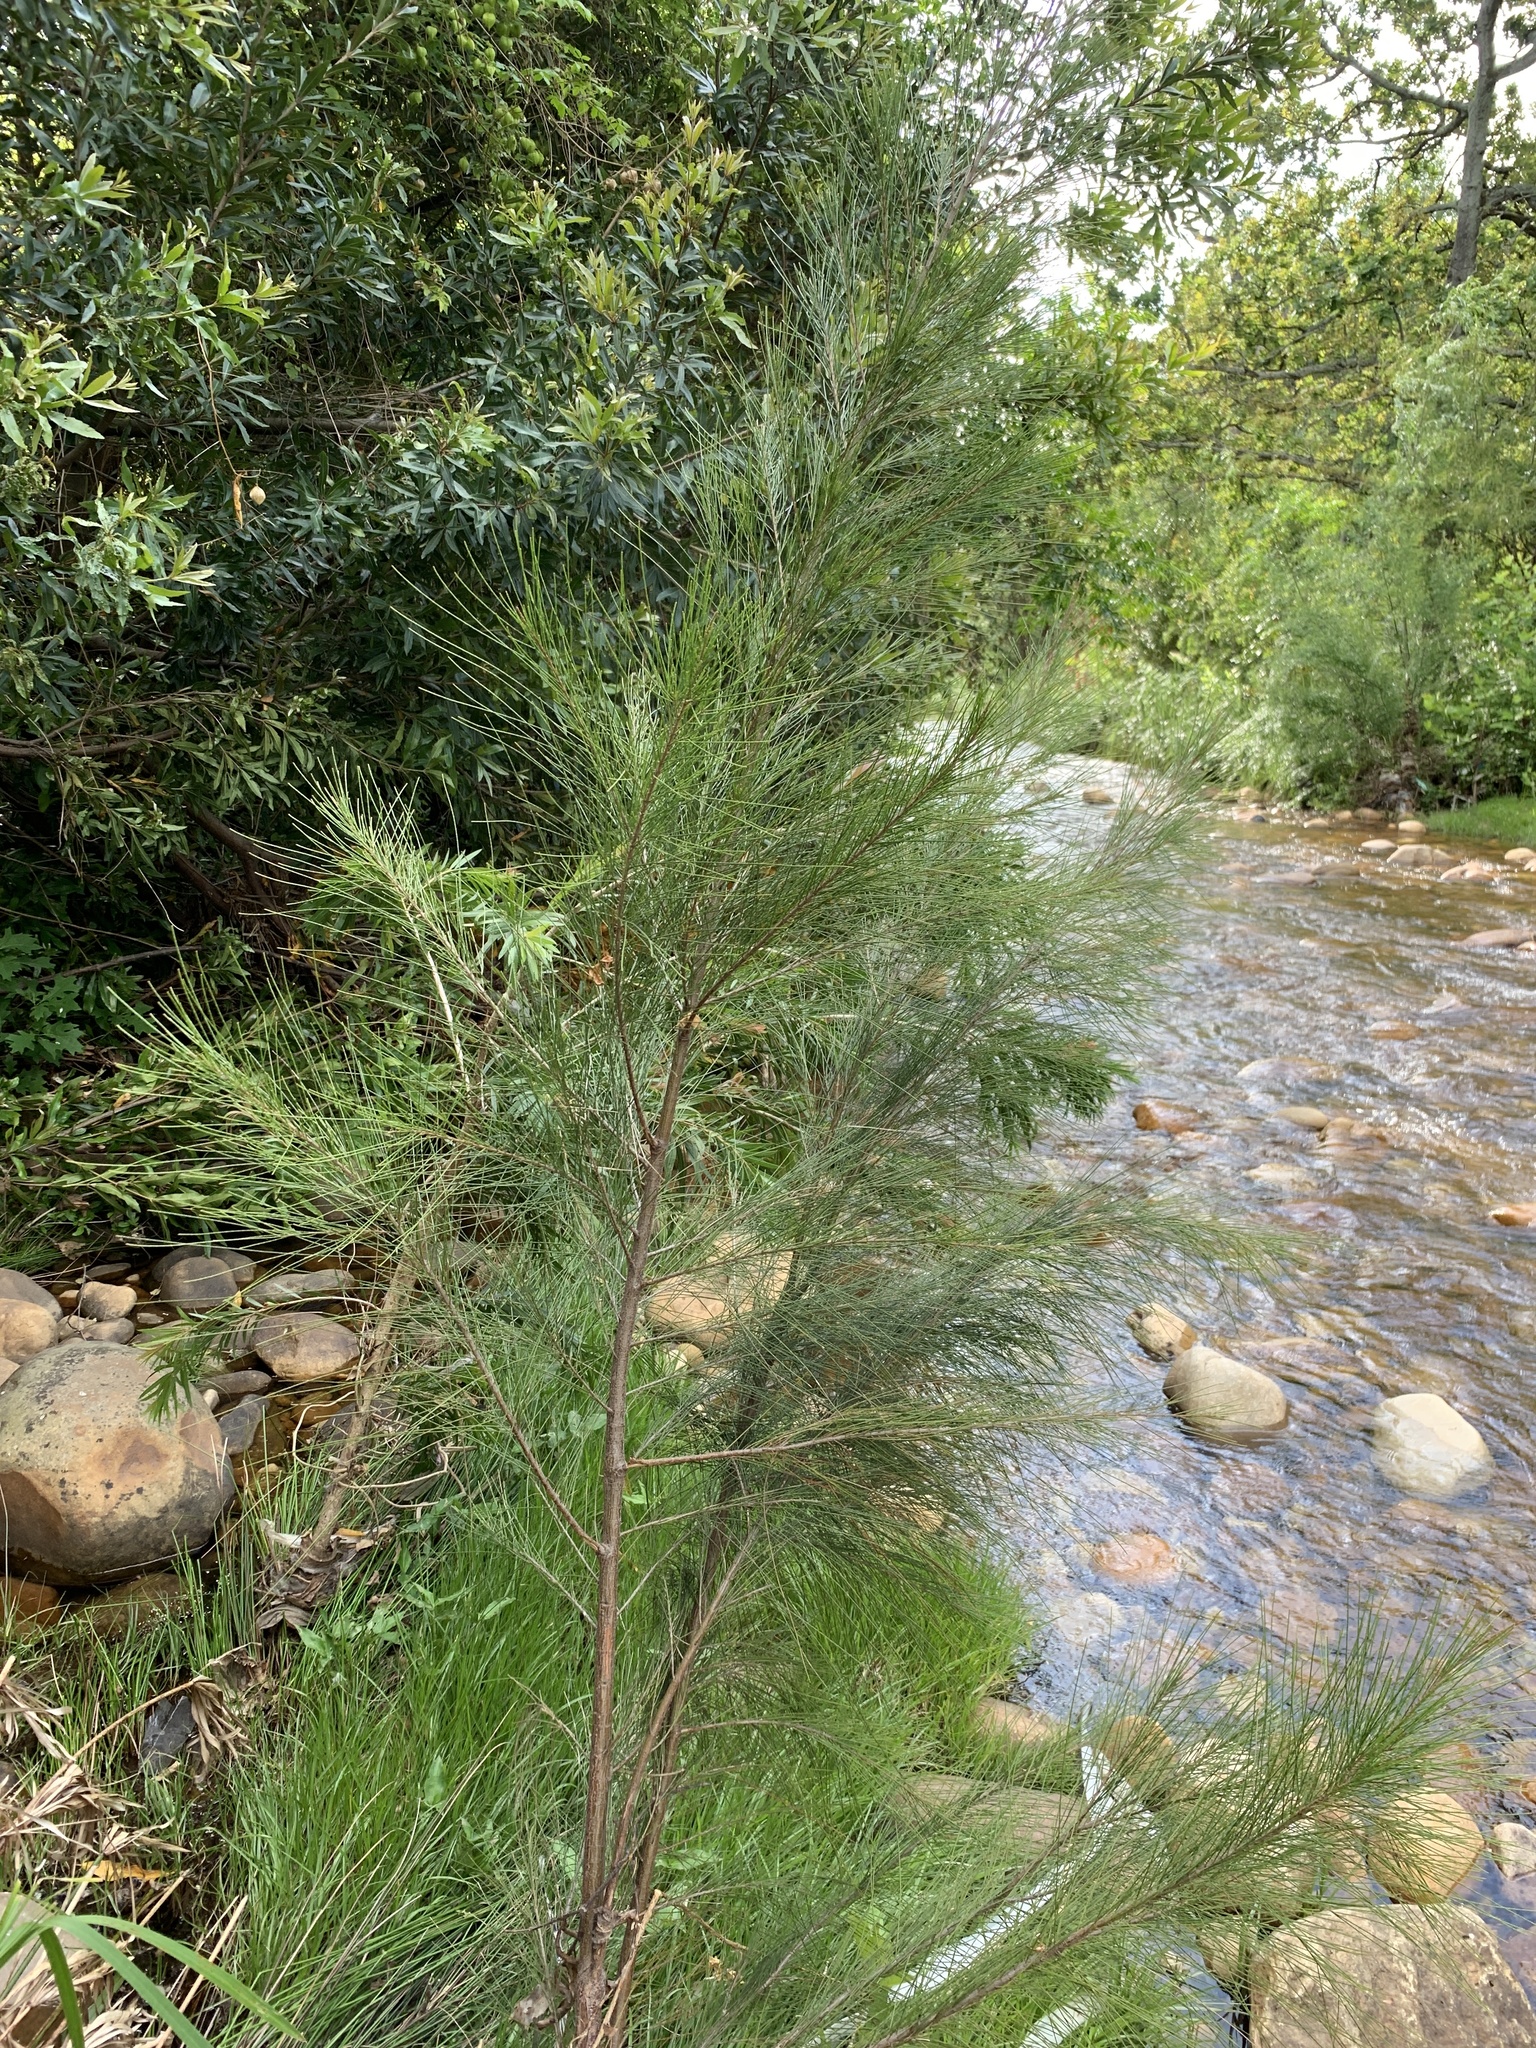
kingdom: Plantae
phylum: Tracheophyta
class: Magnoliopsida
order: Fagales
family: Casuarinaceae
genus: Casuarina
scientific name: Casuarina cunninghamiana
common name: River sheoak
